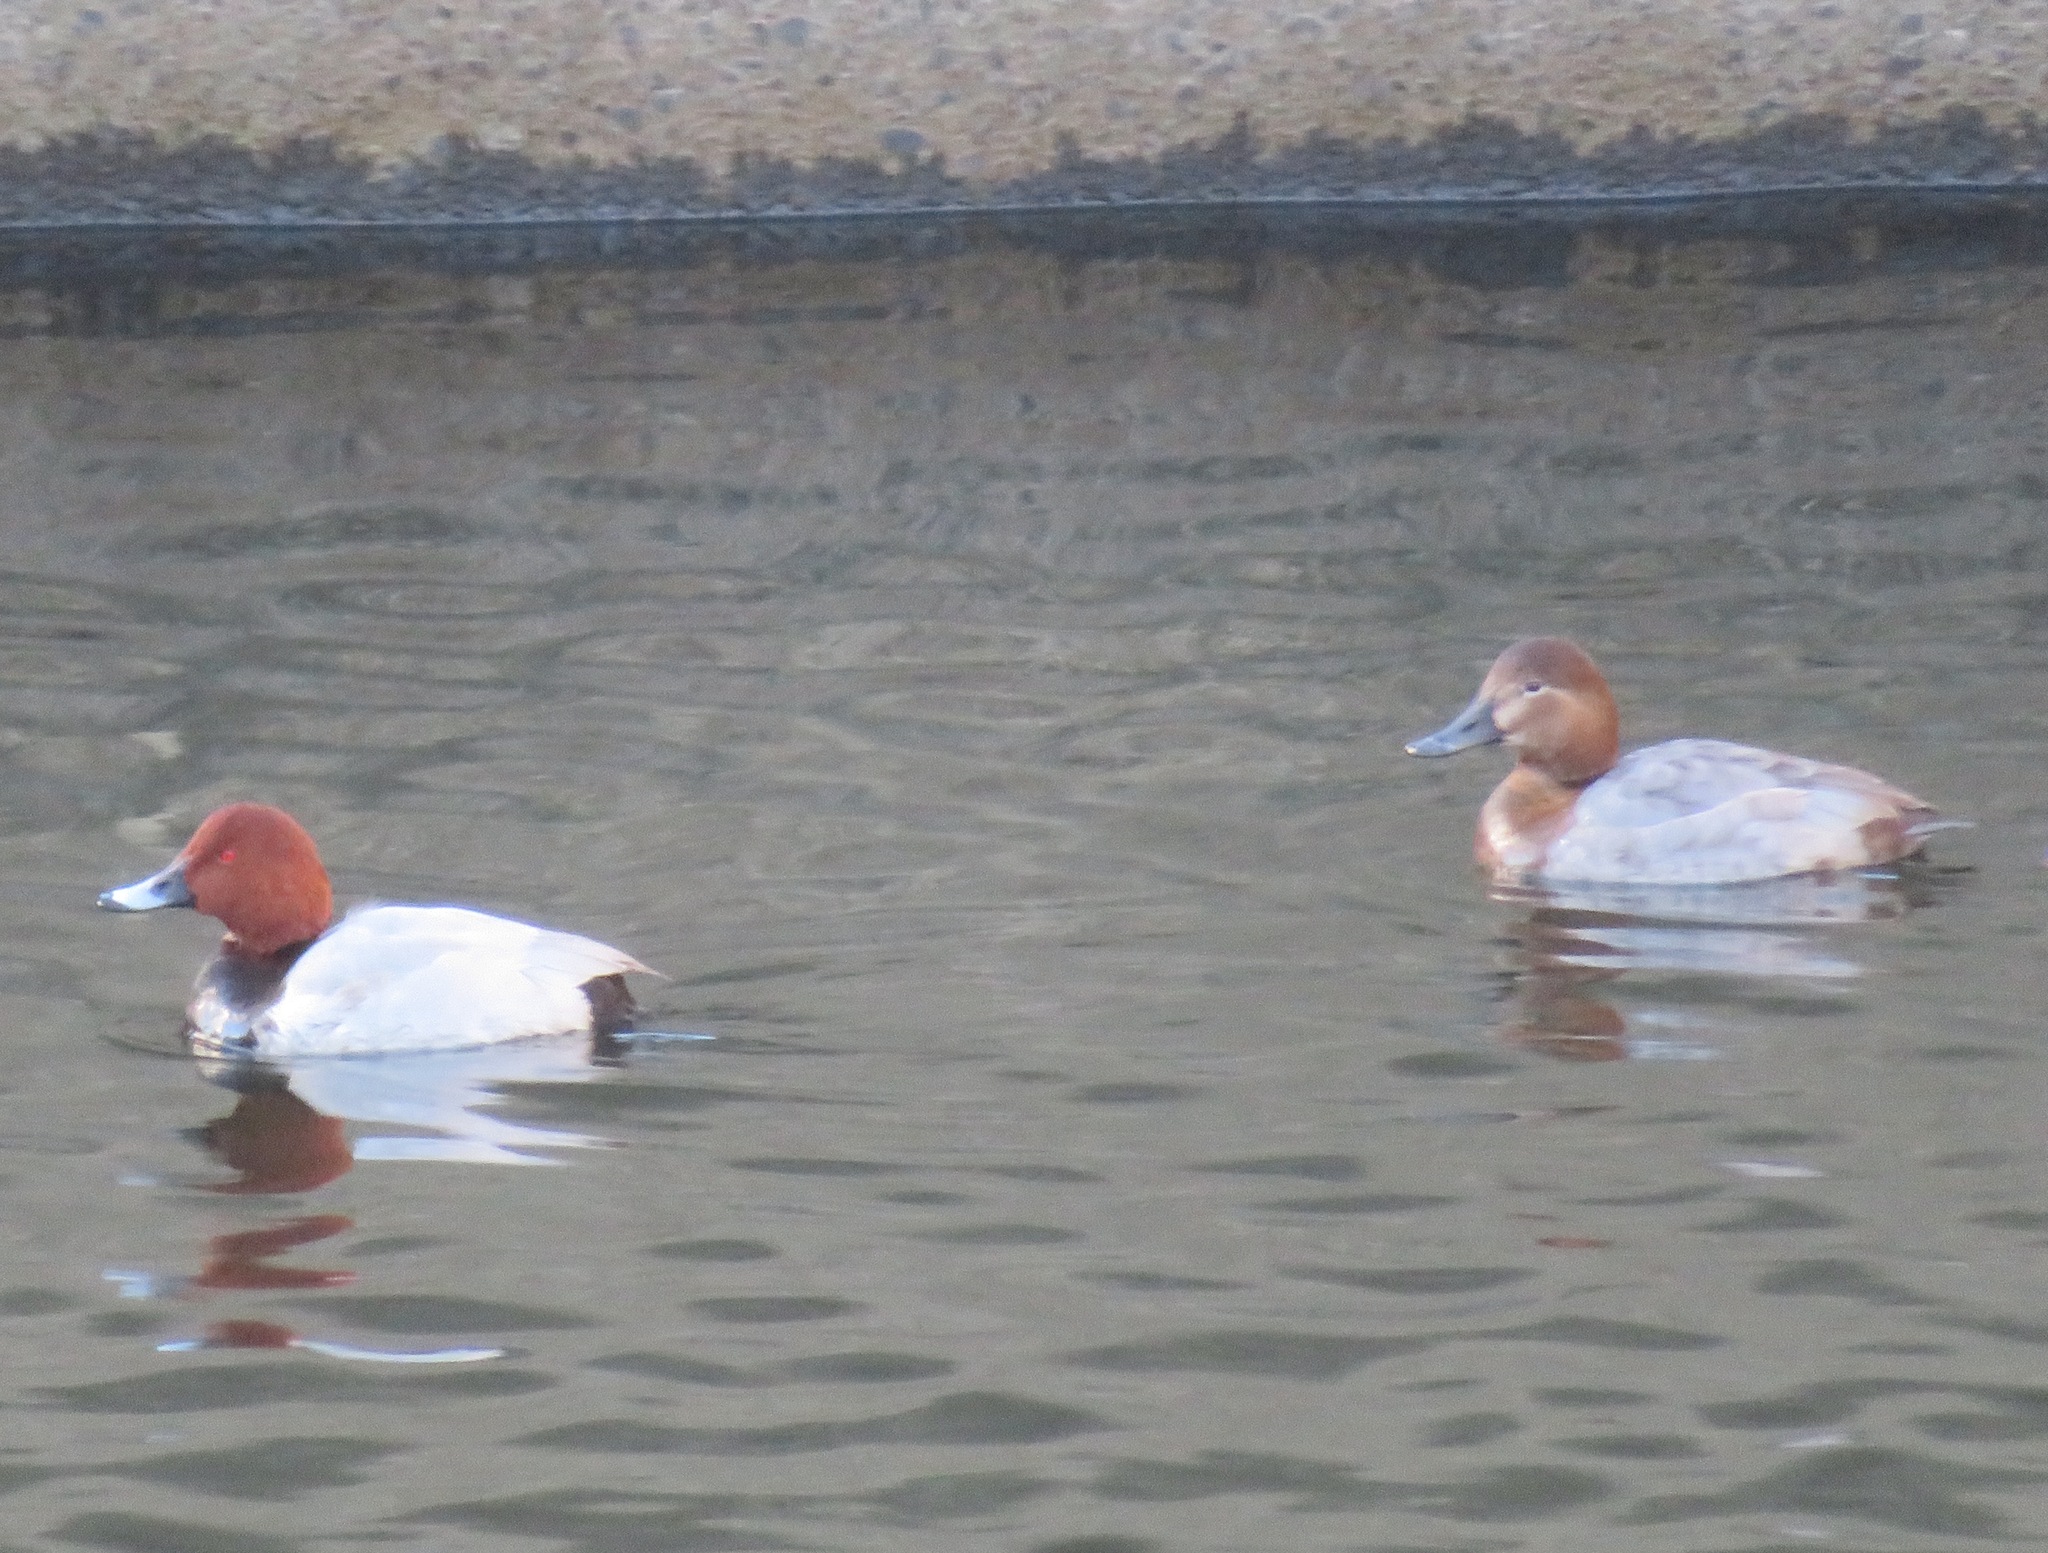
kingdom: Animalia
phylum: Chordata
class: Aves
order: Anseriformes
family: Anatidae
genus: Aythya
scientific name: Aythya ferina
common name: Common pochard
